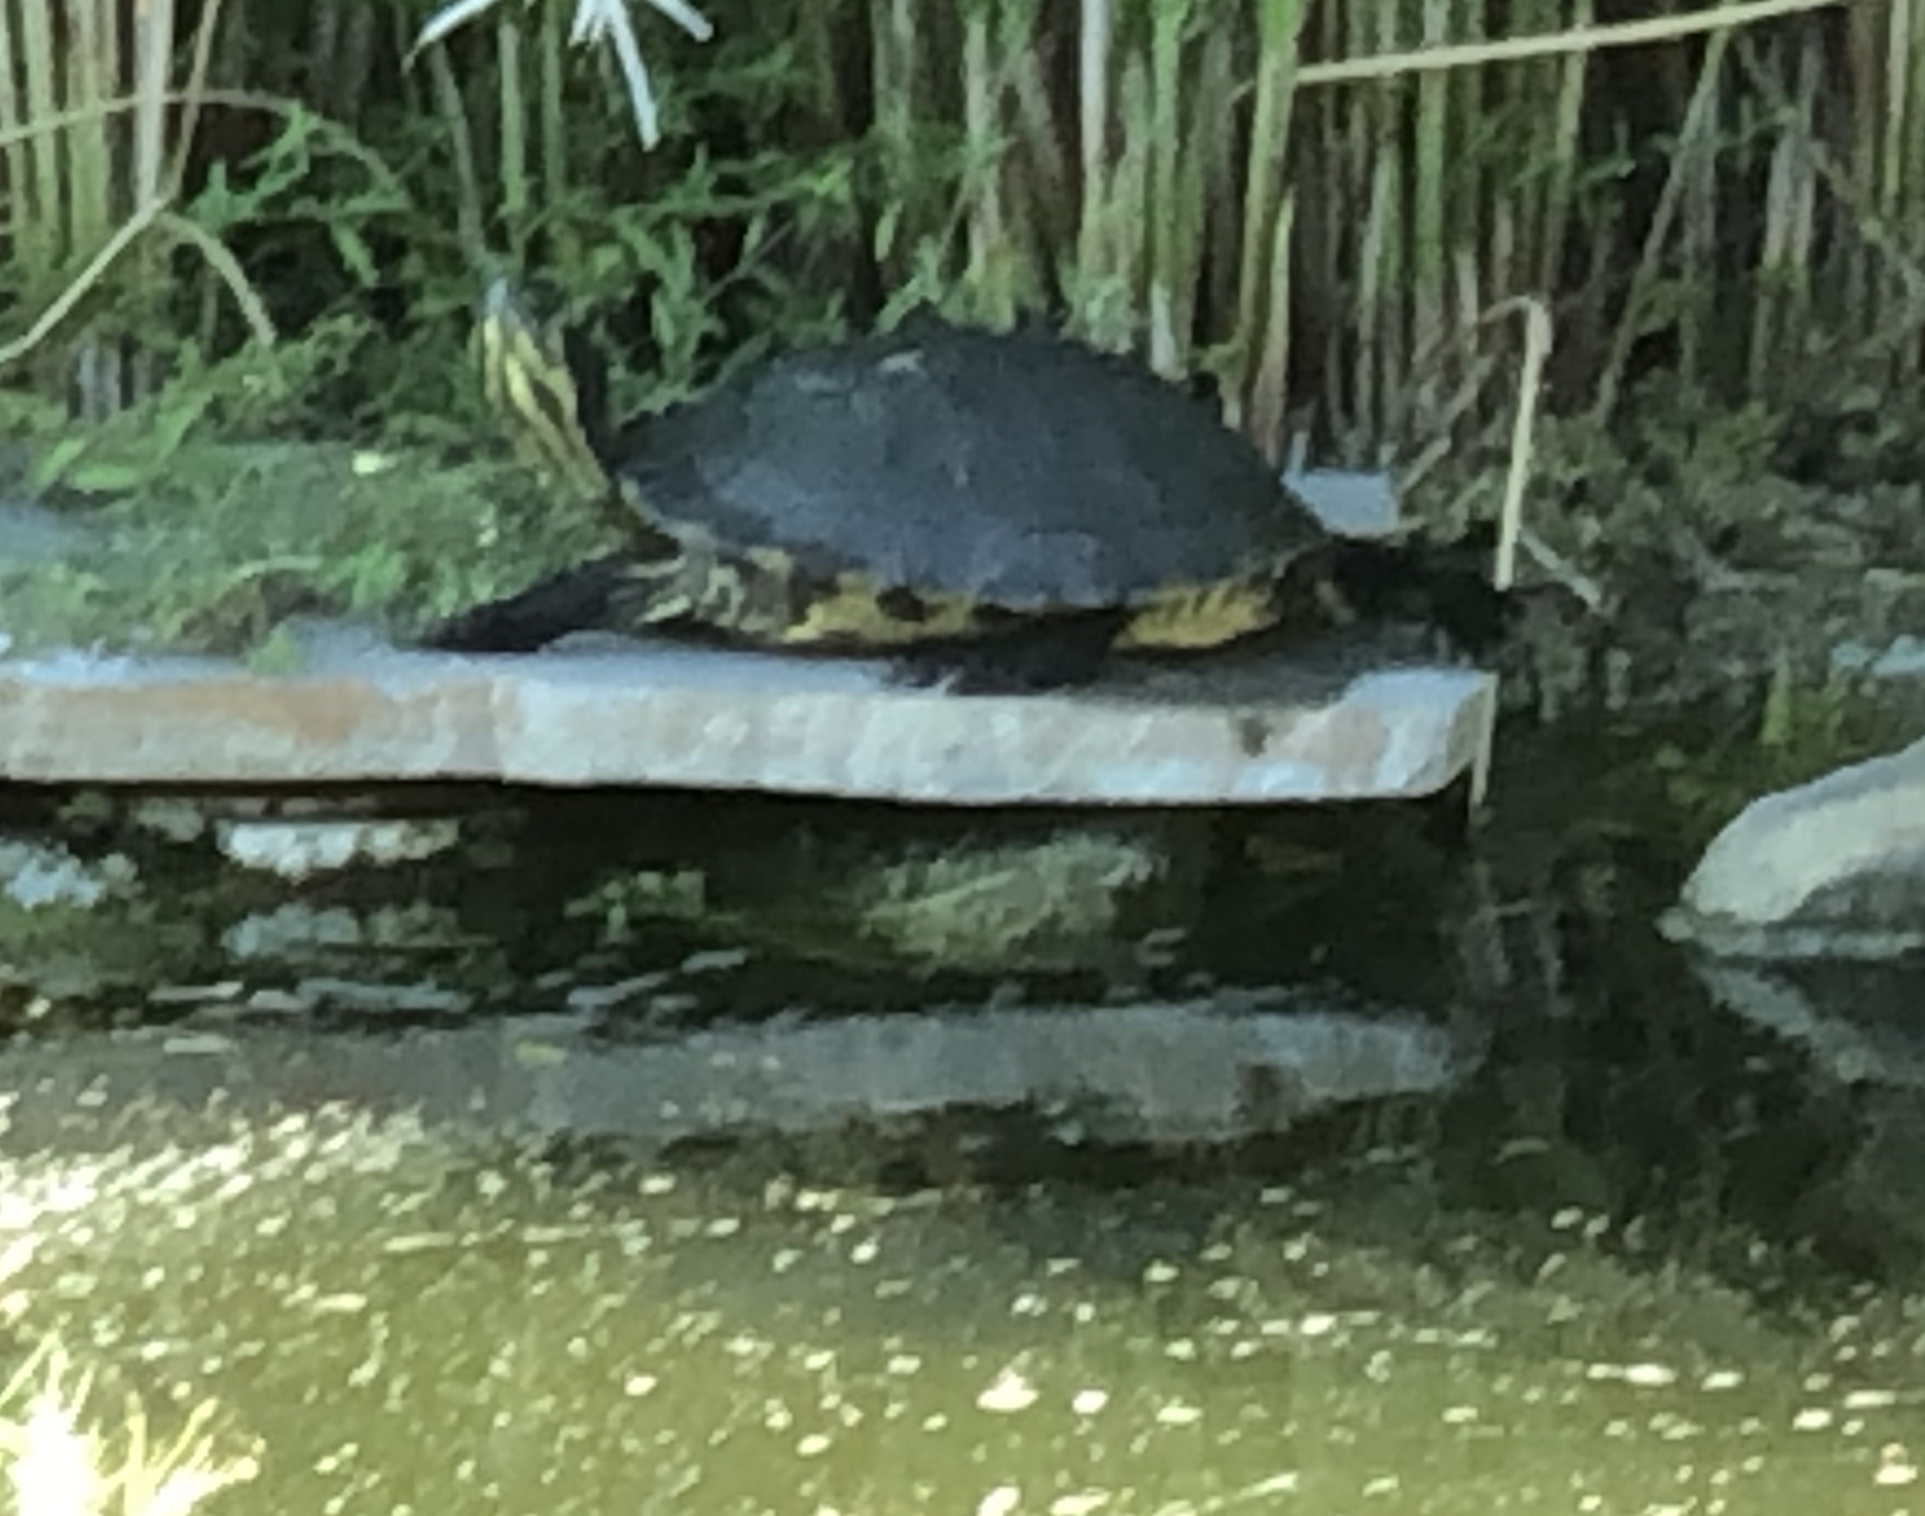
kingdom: Animalia
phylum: Chordata
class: Testudines
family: Emydidae
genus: Trachemys
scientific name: Trachemys scripta
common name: Slider
